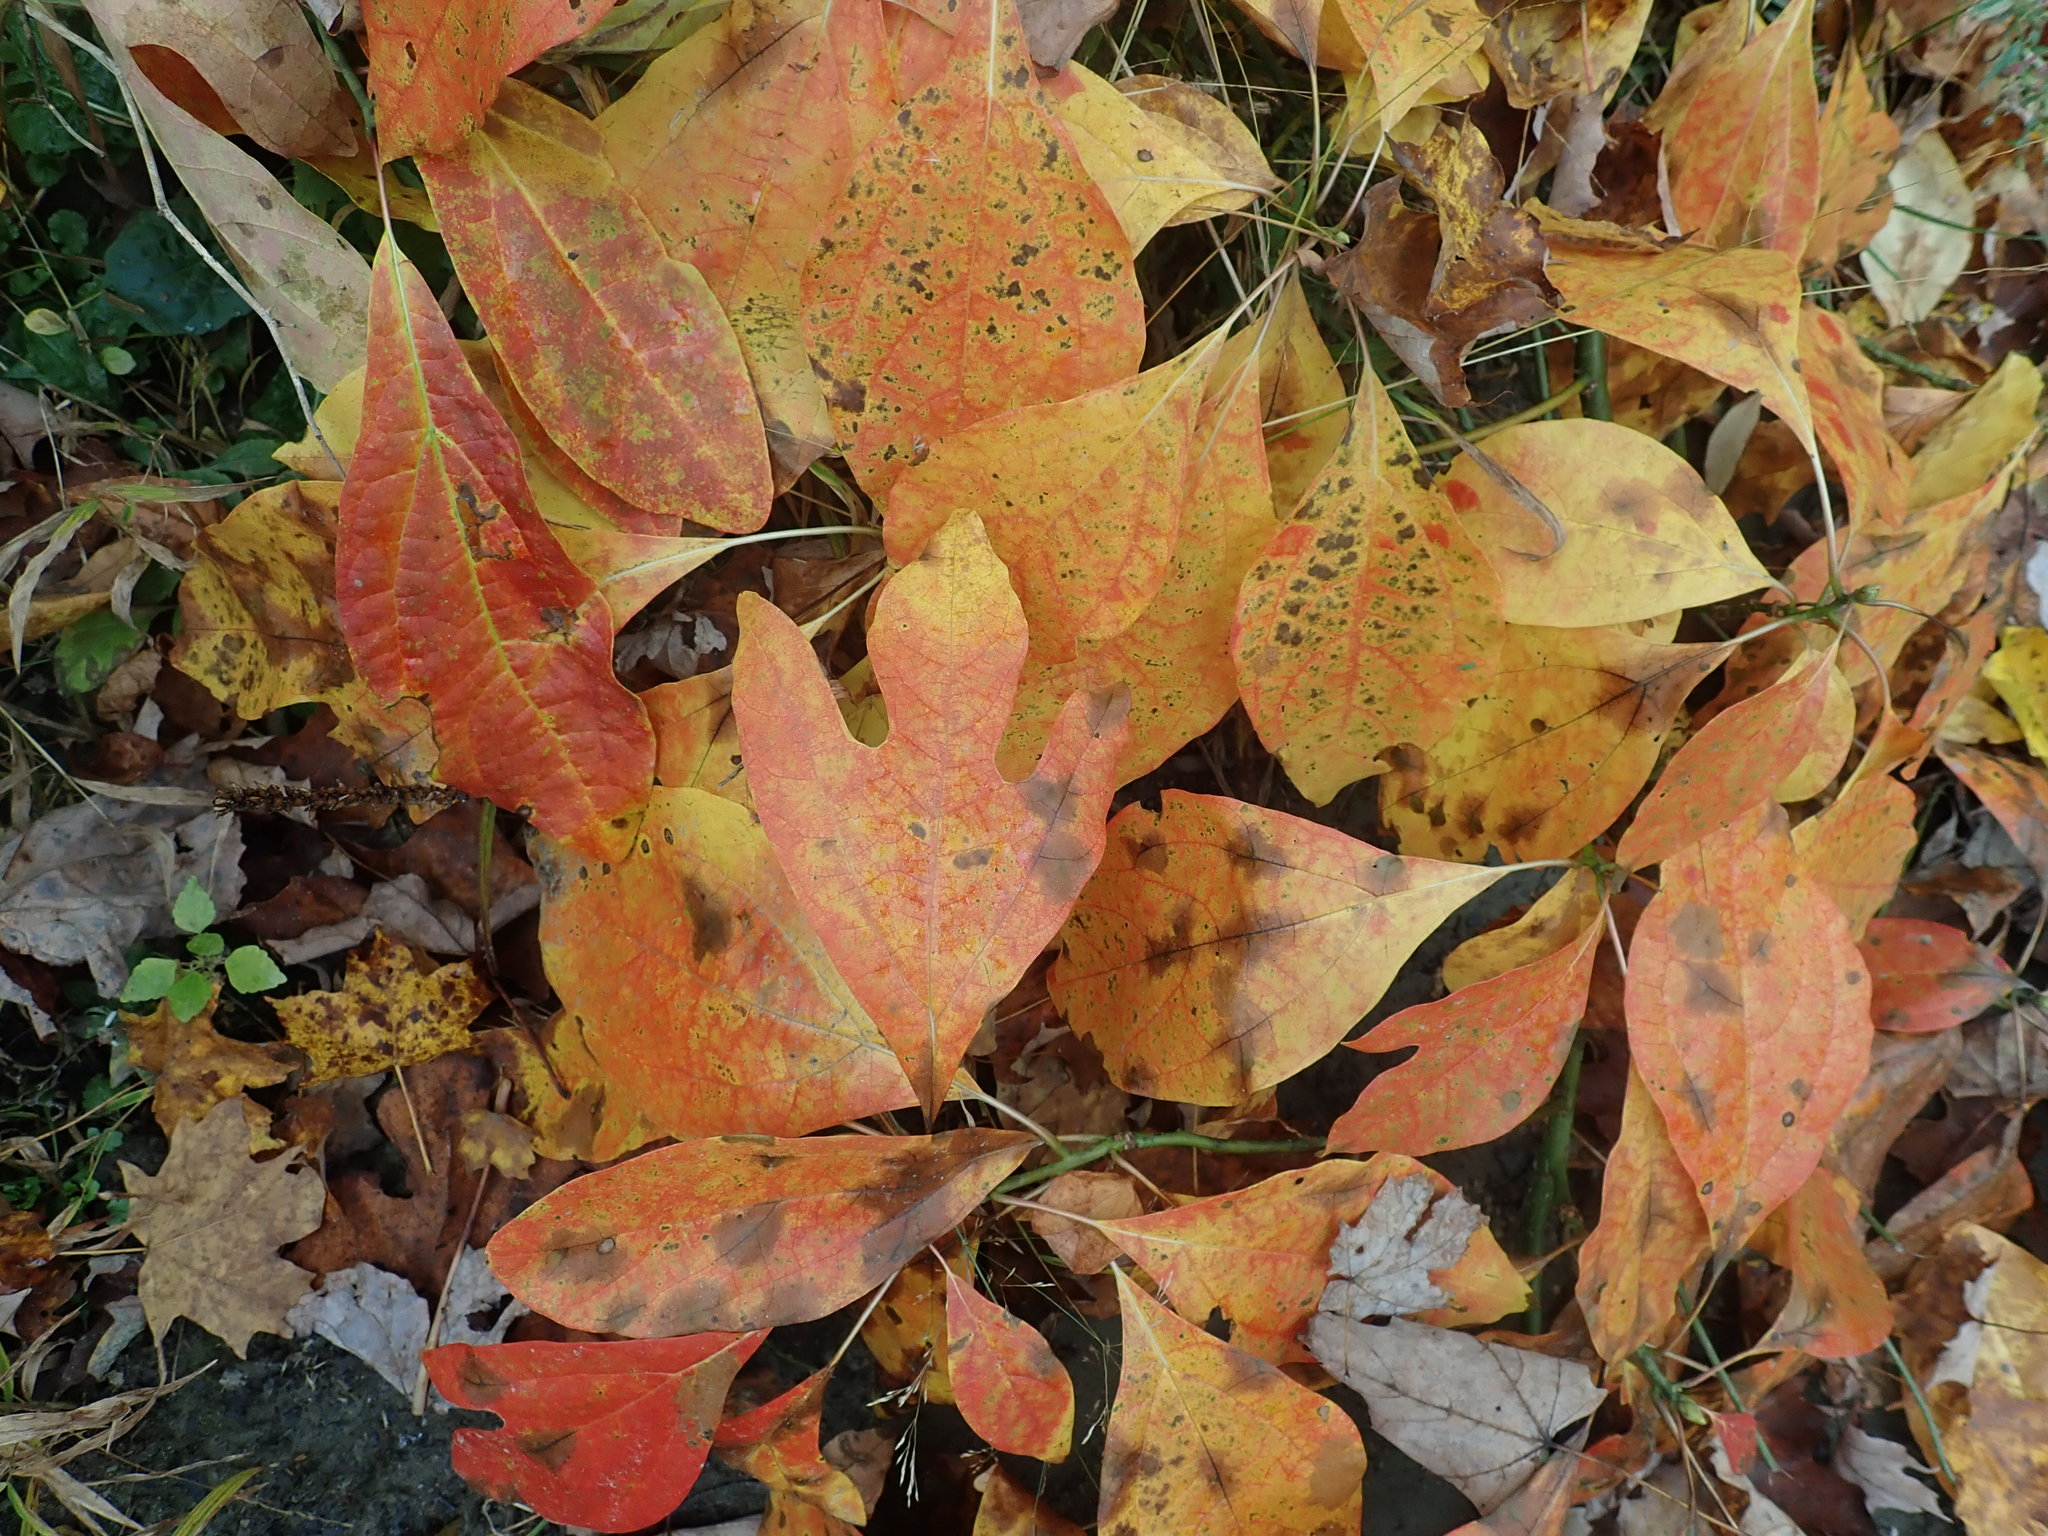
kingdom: Plantae
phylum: Tracheophyta
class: Magnoliopsida
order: Laurales
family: Lauraceae
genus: Sassafras
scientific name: Sassafras albidum
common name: Sassafras
